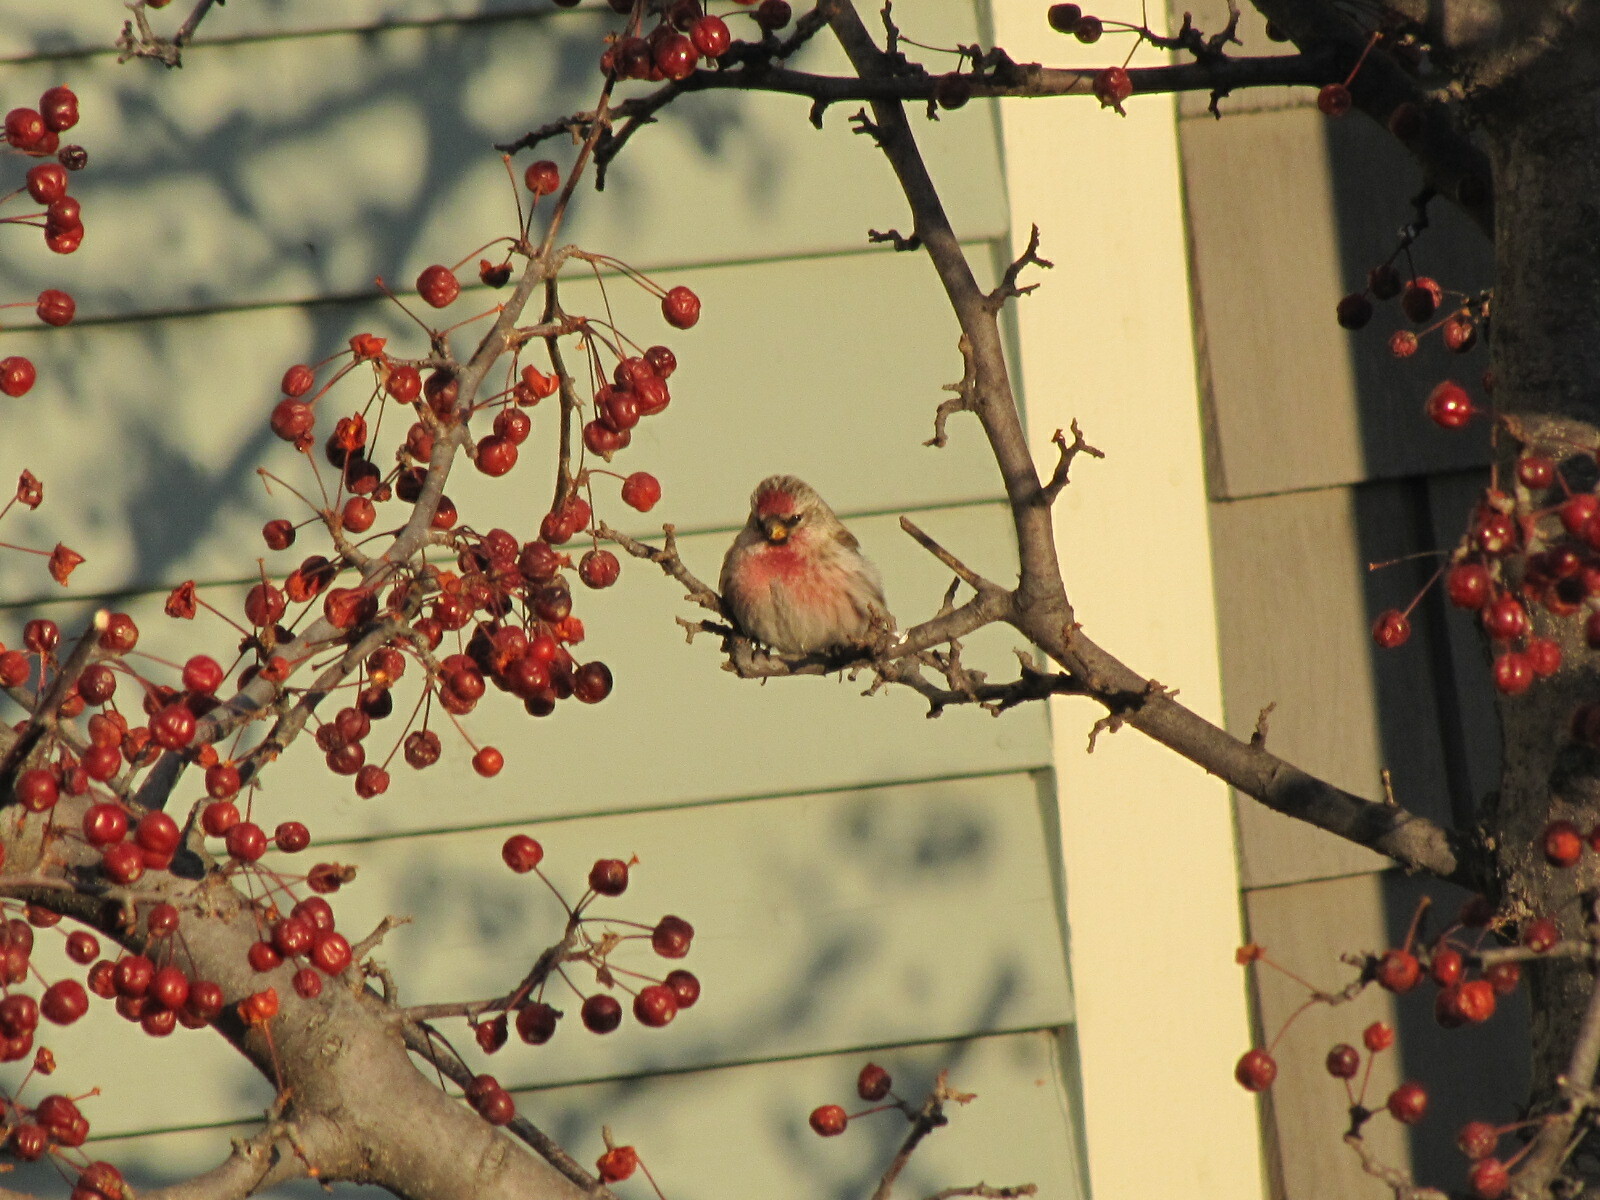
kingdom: Animalia
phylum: Chordata
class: Aves
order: Passeriformes
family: Fringillidae
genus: Acanthis
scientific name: Acanthis flammea
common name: Common redpoll
